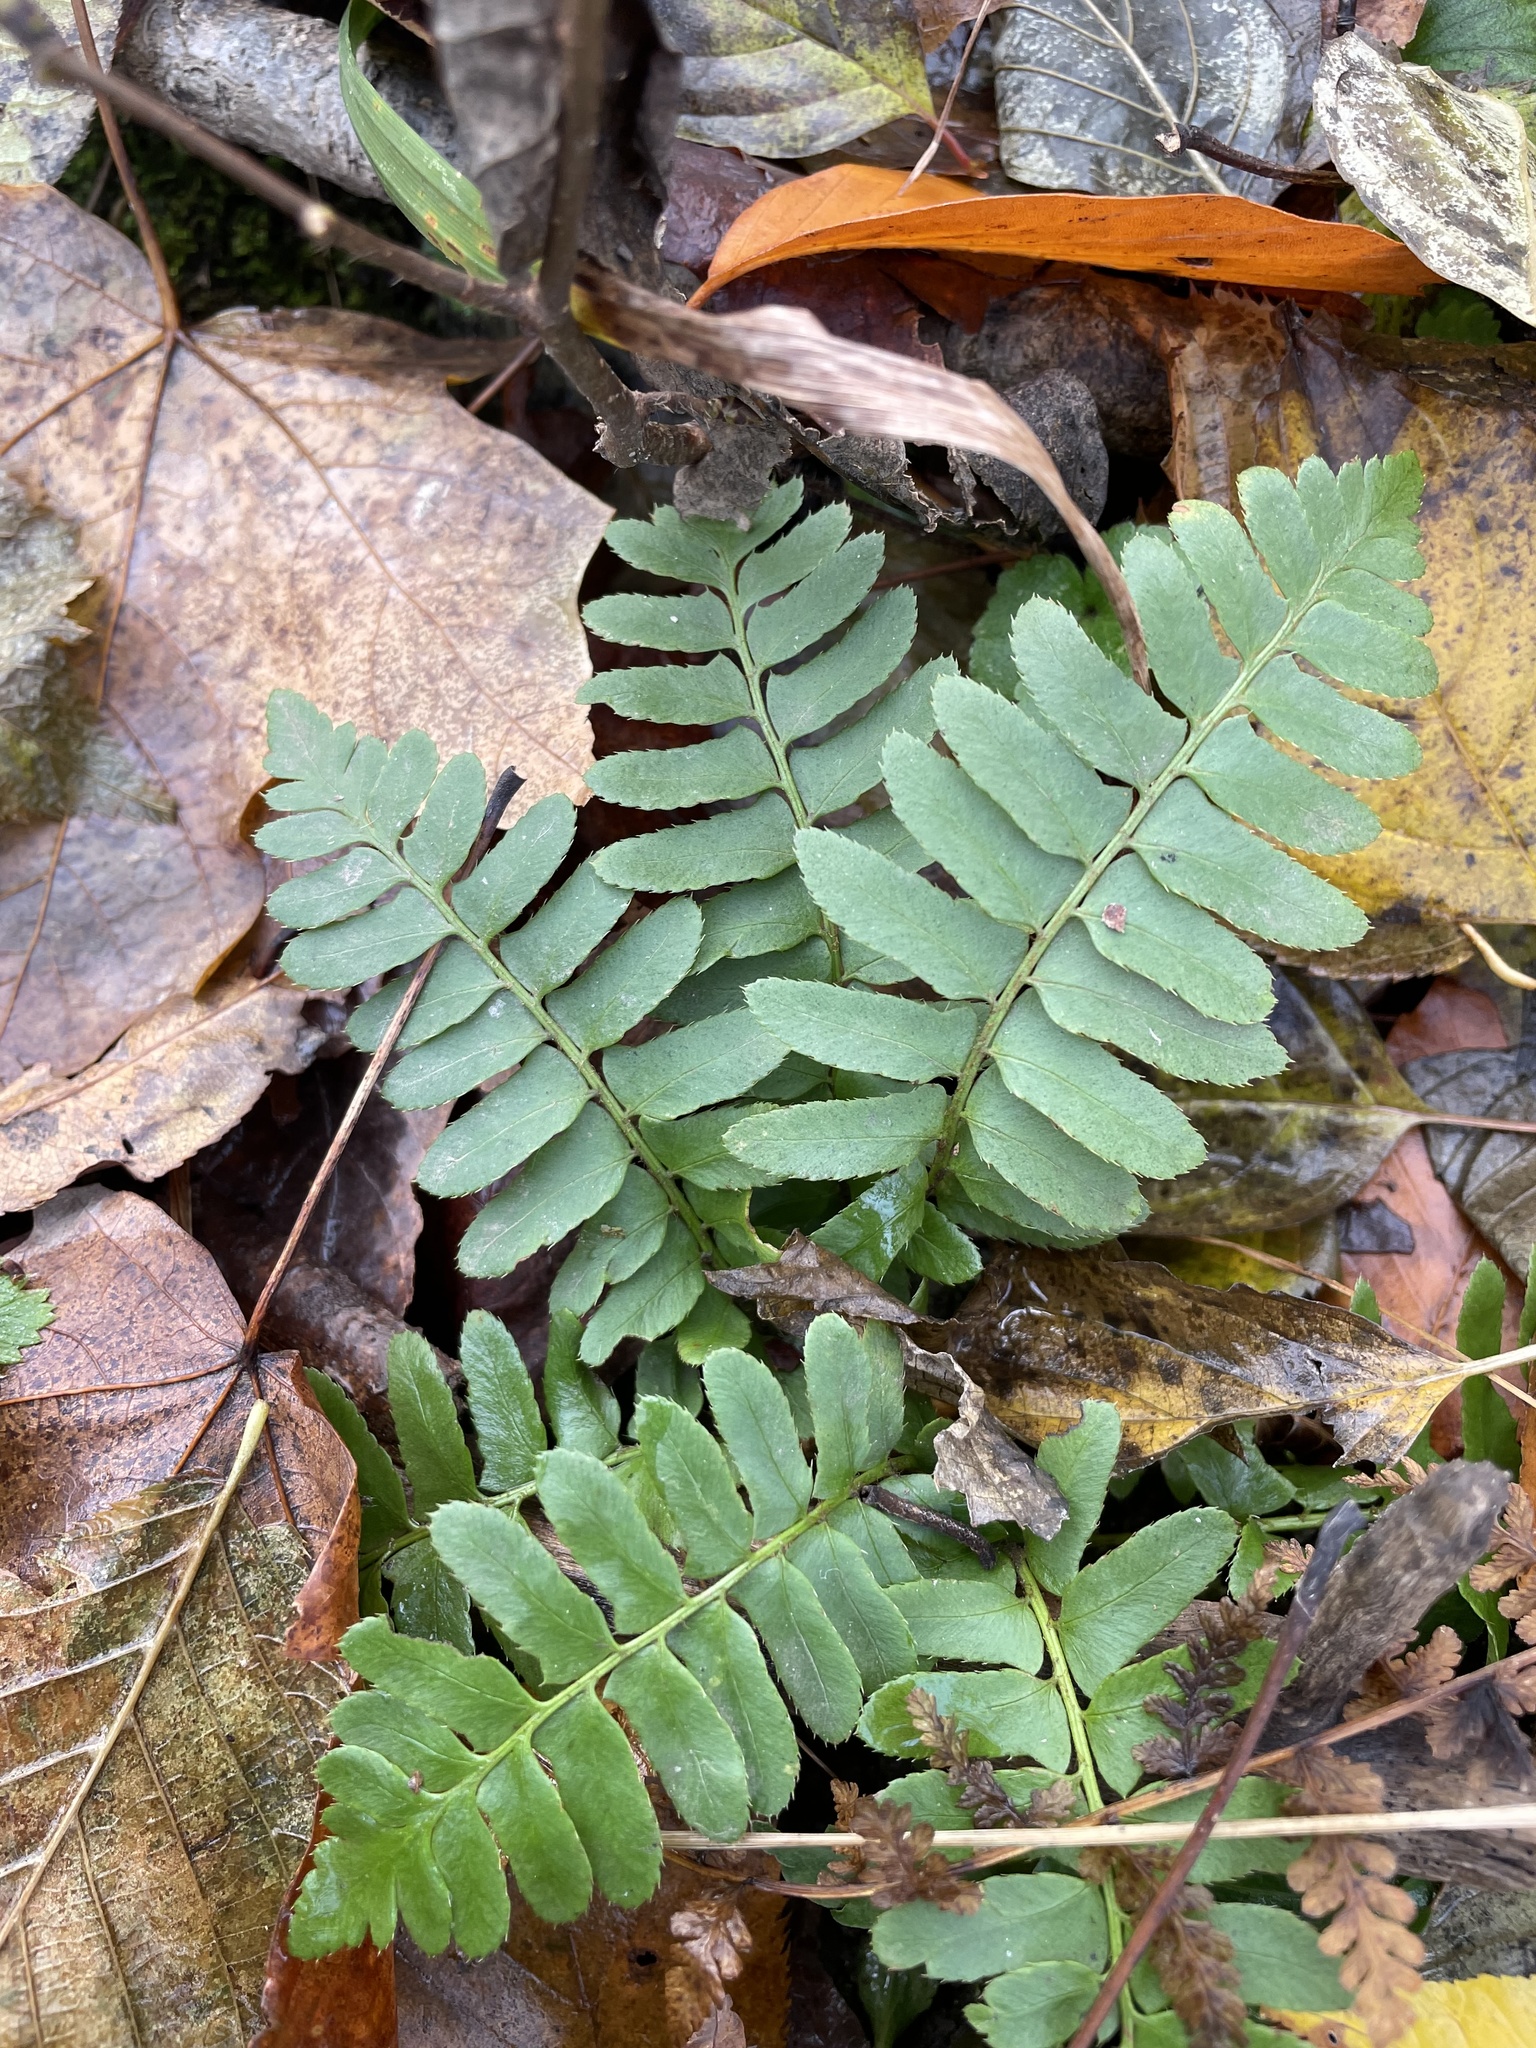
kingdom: Plantae
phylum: Tracheophyta
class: Polypodiopsida
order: Polypodiales
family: Dryopteridaceae
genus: Polystichum
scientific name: Polystichum acrostichoides
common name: Christmas fern
